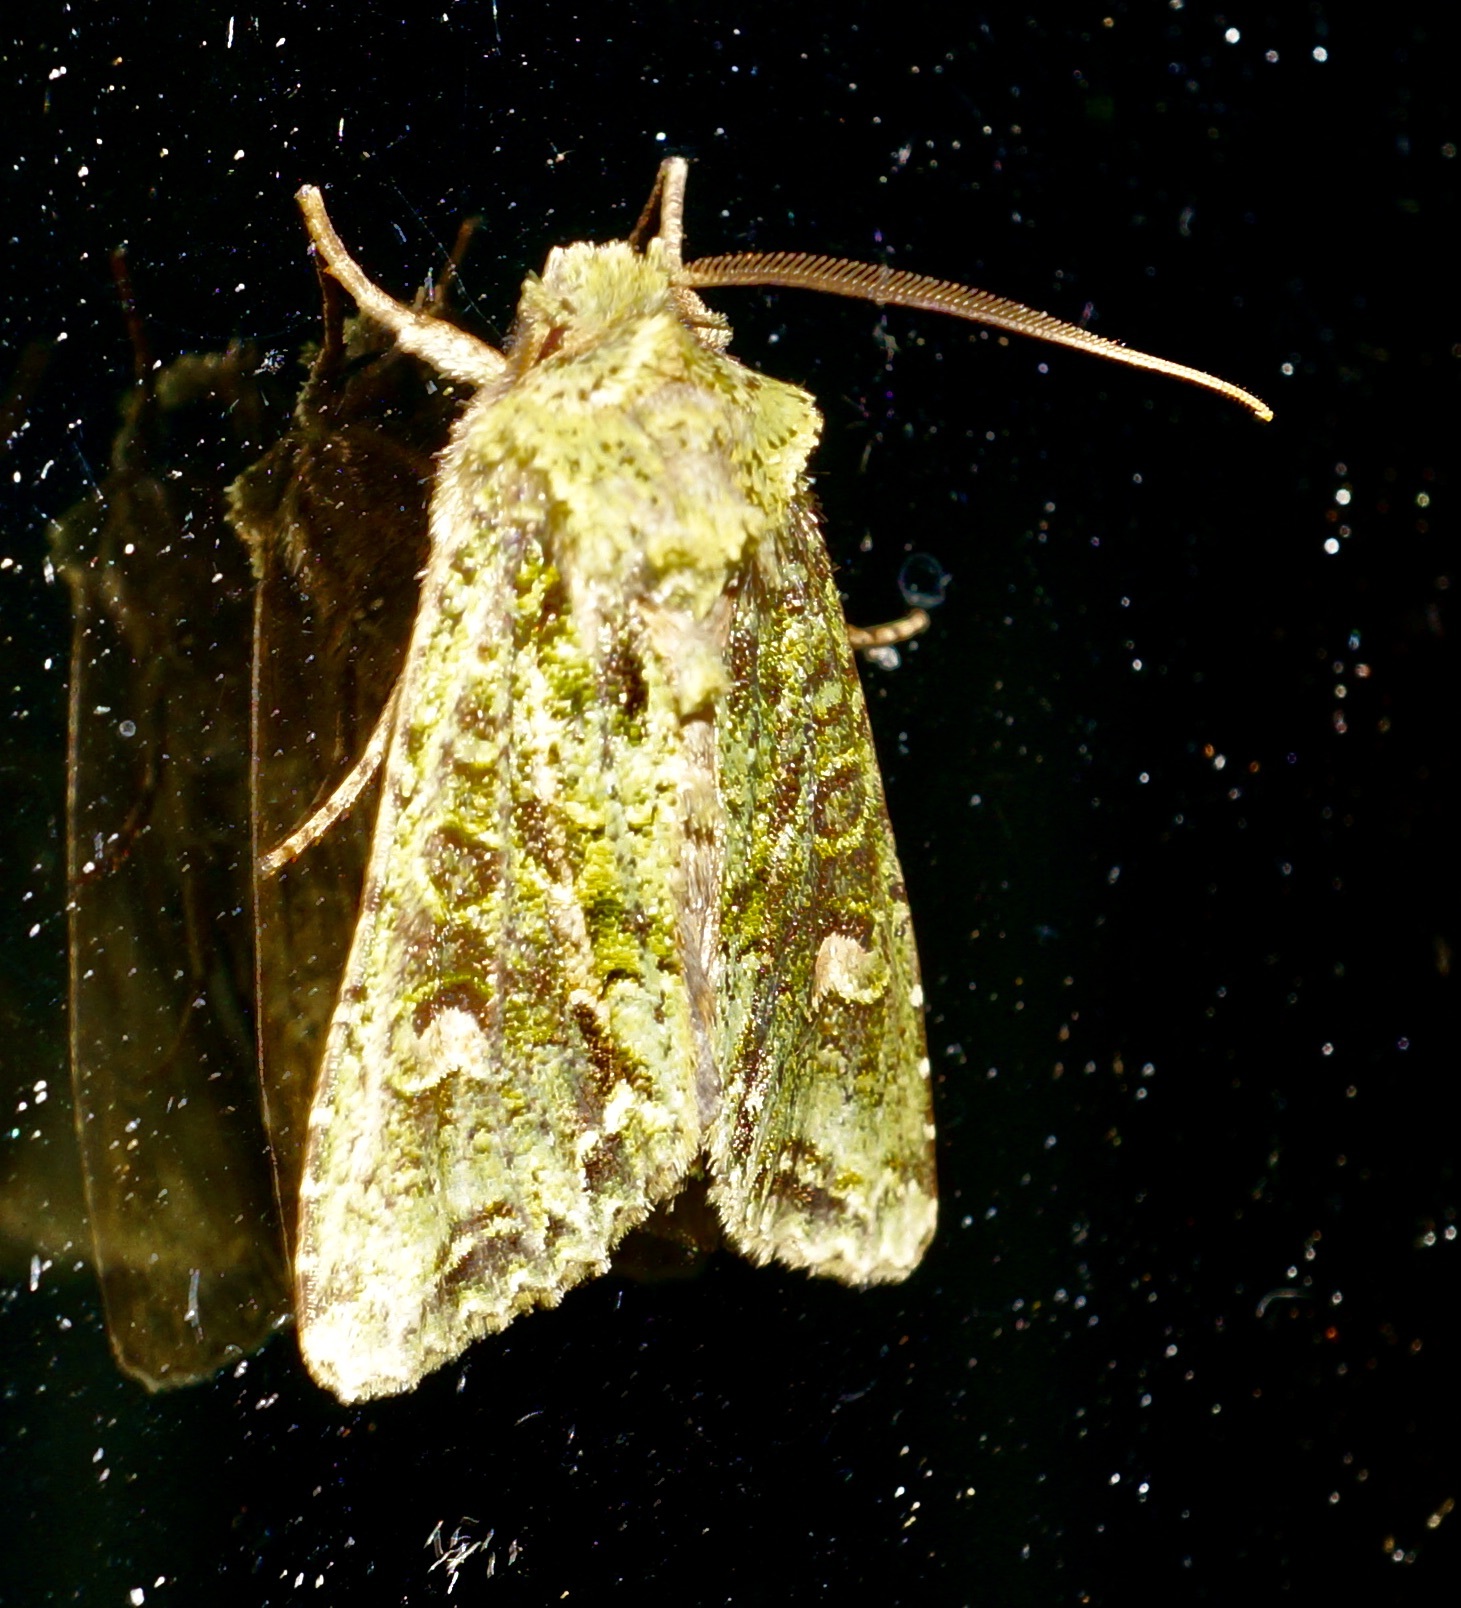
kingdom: Animalia
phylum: Arthropoda
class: Insecta
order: Lepidoptera
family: Noctuidae
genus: Ichneutica
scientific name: Ichneutica
